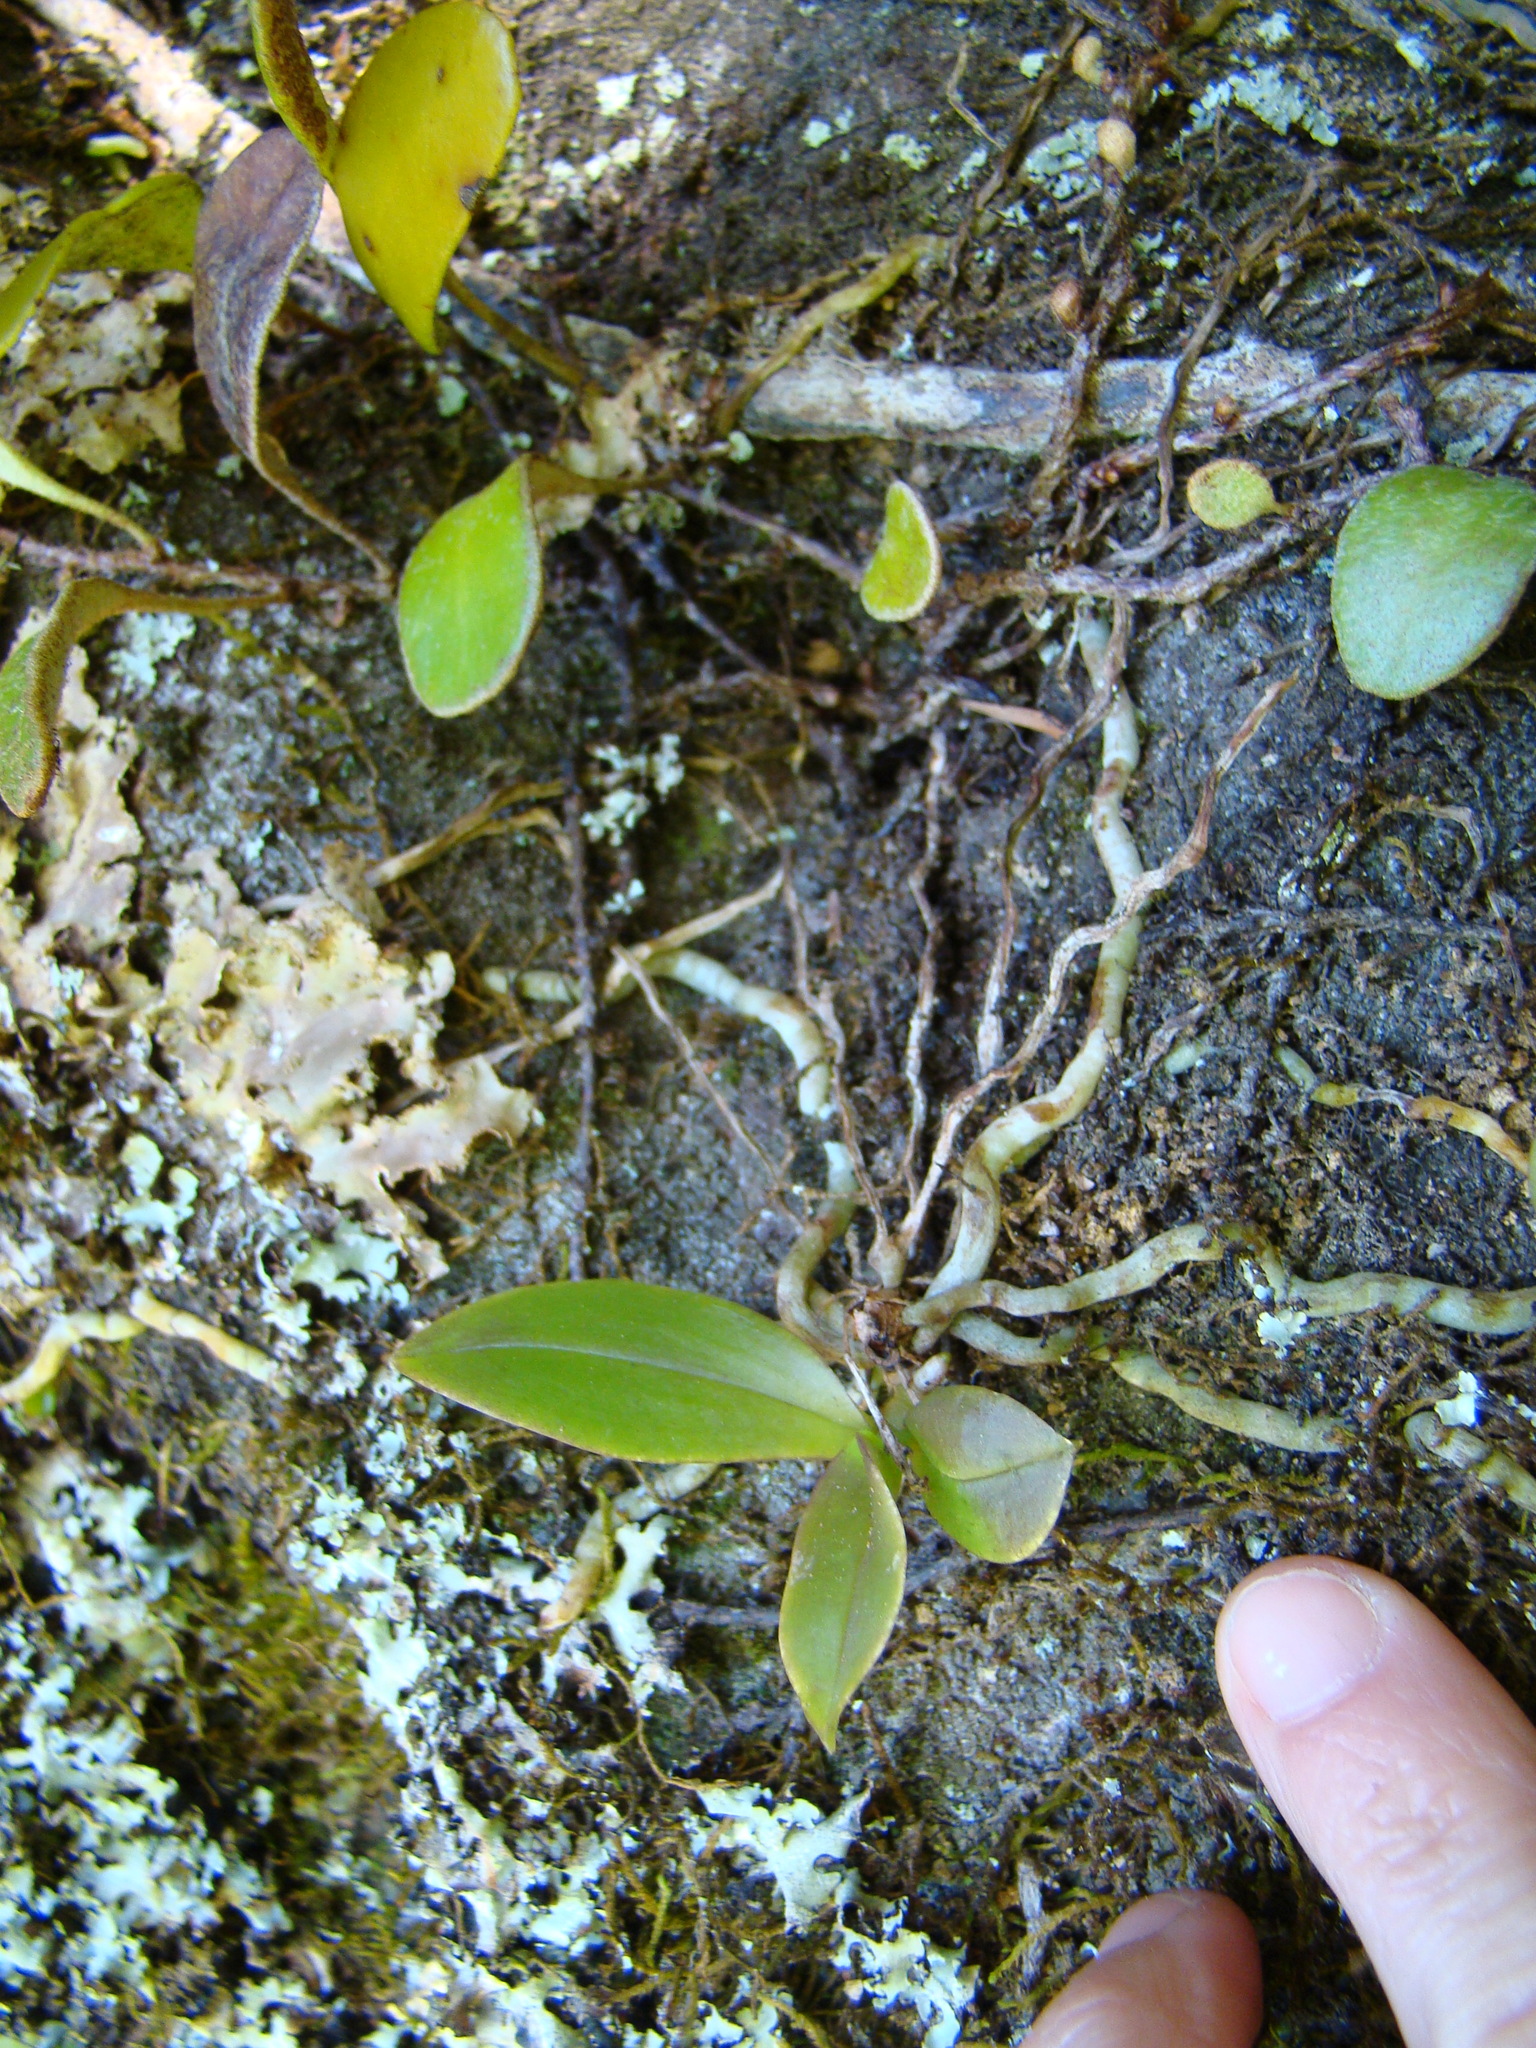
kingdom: Plantae
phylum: Tracheophyta
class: Liliopsida
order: Asparagales
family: Orchidaceae
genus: Drymoanthus
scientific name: Drymoanthus adversus
